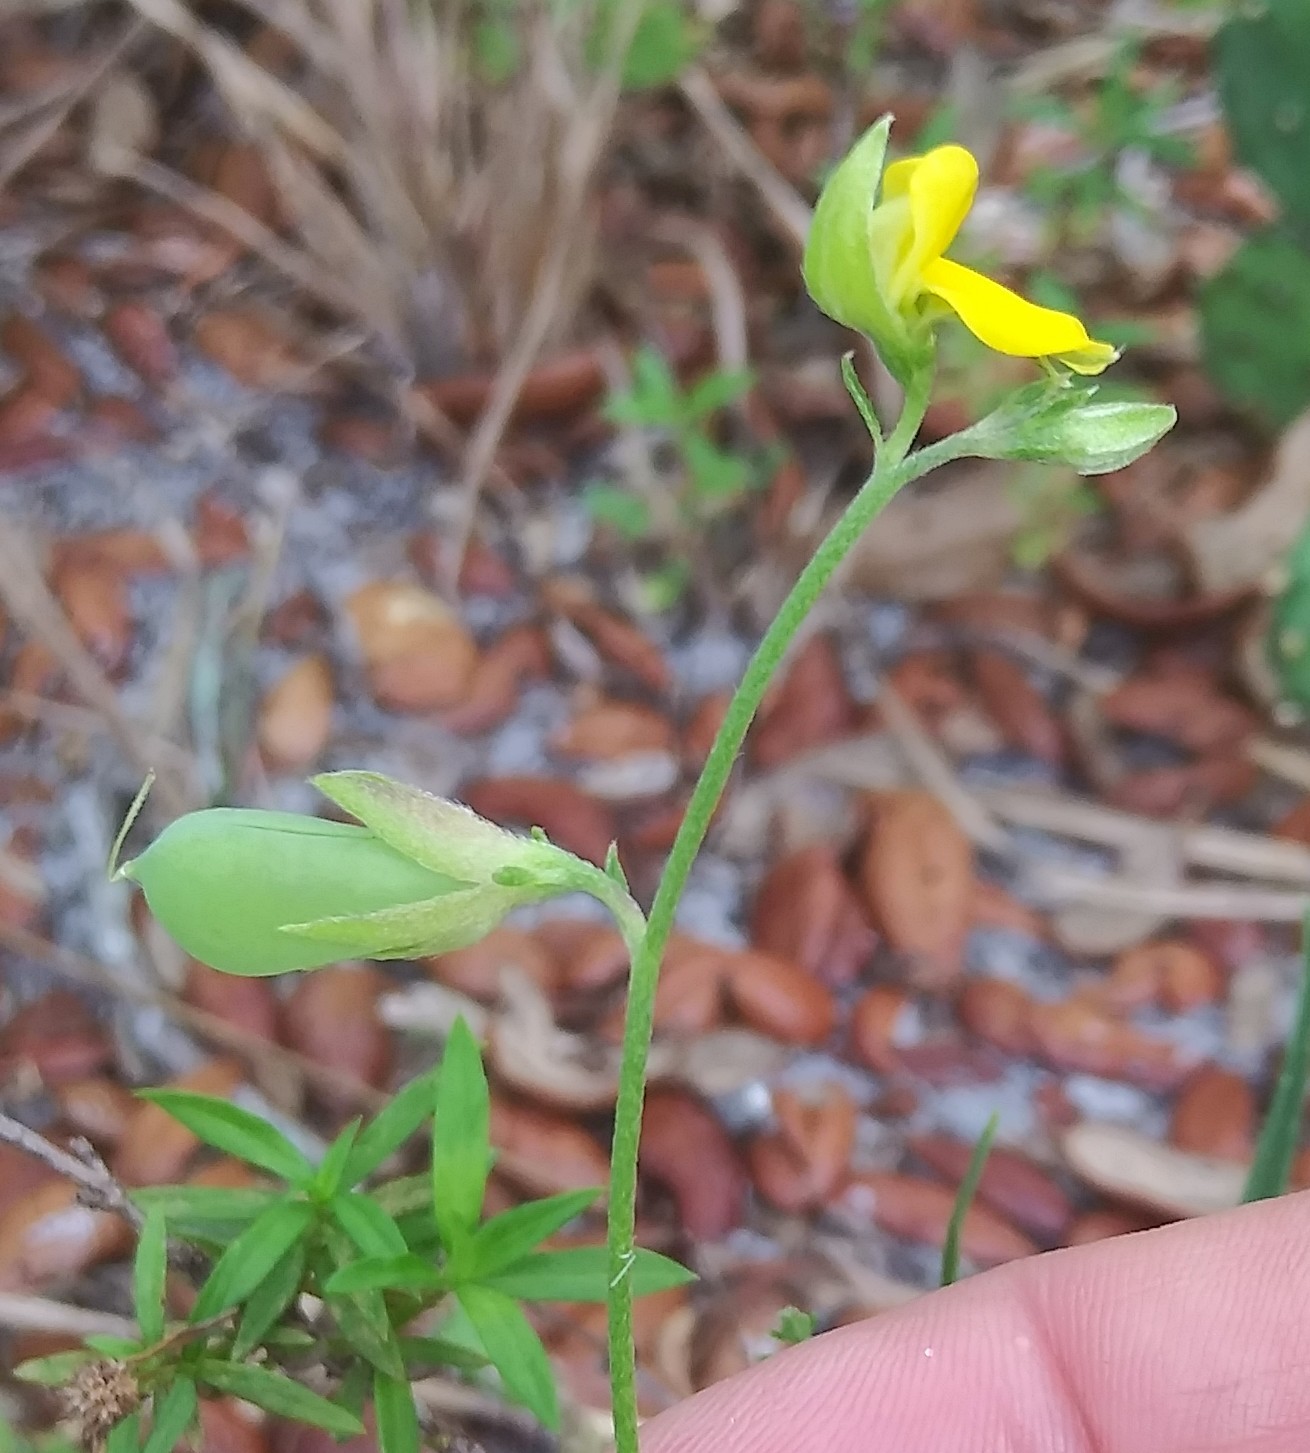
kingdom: Plantae
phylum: Tracheophyta
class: Magnoliopsida
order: Fabales
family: Fabaceae
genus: Crotalaria
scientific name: Crotalaria rotundifolia
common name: Prostrate rattlebox
